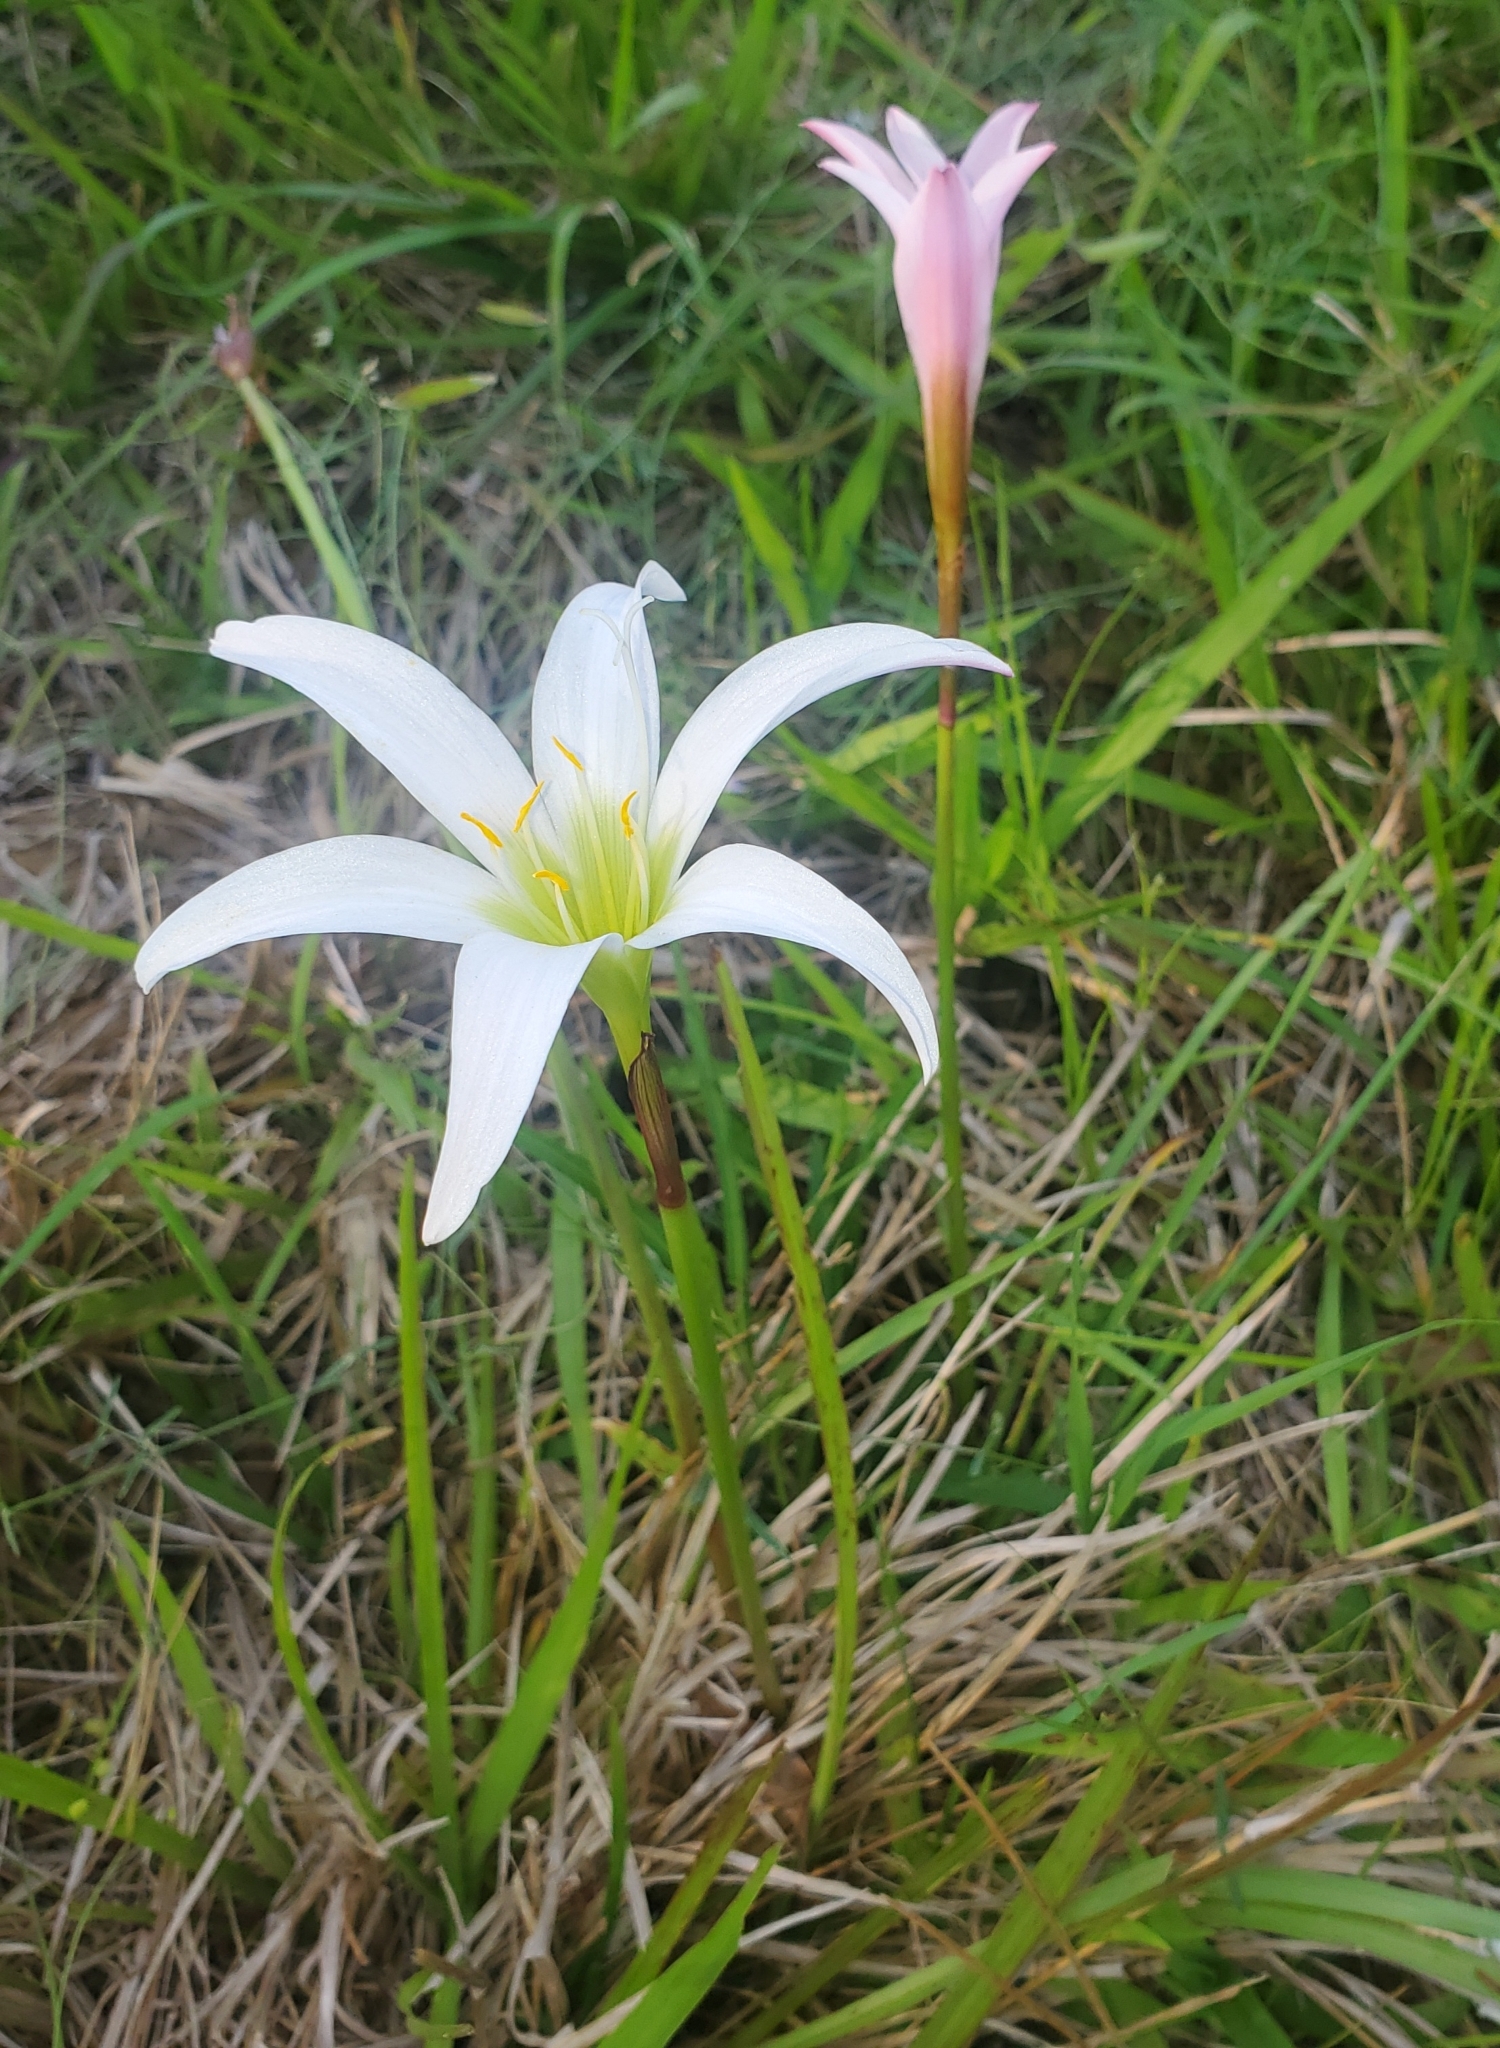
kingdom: Plantae
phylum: Tracheophyta
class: Liliopsida
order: Asparagales
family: Amaryllidaceae
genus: Zephyranthes
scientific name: Zephyranthes atamasco
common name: Atamasco lily
